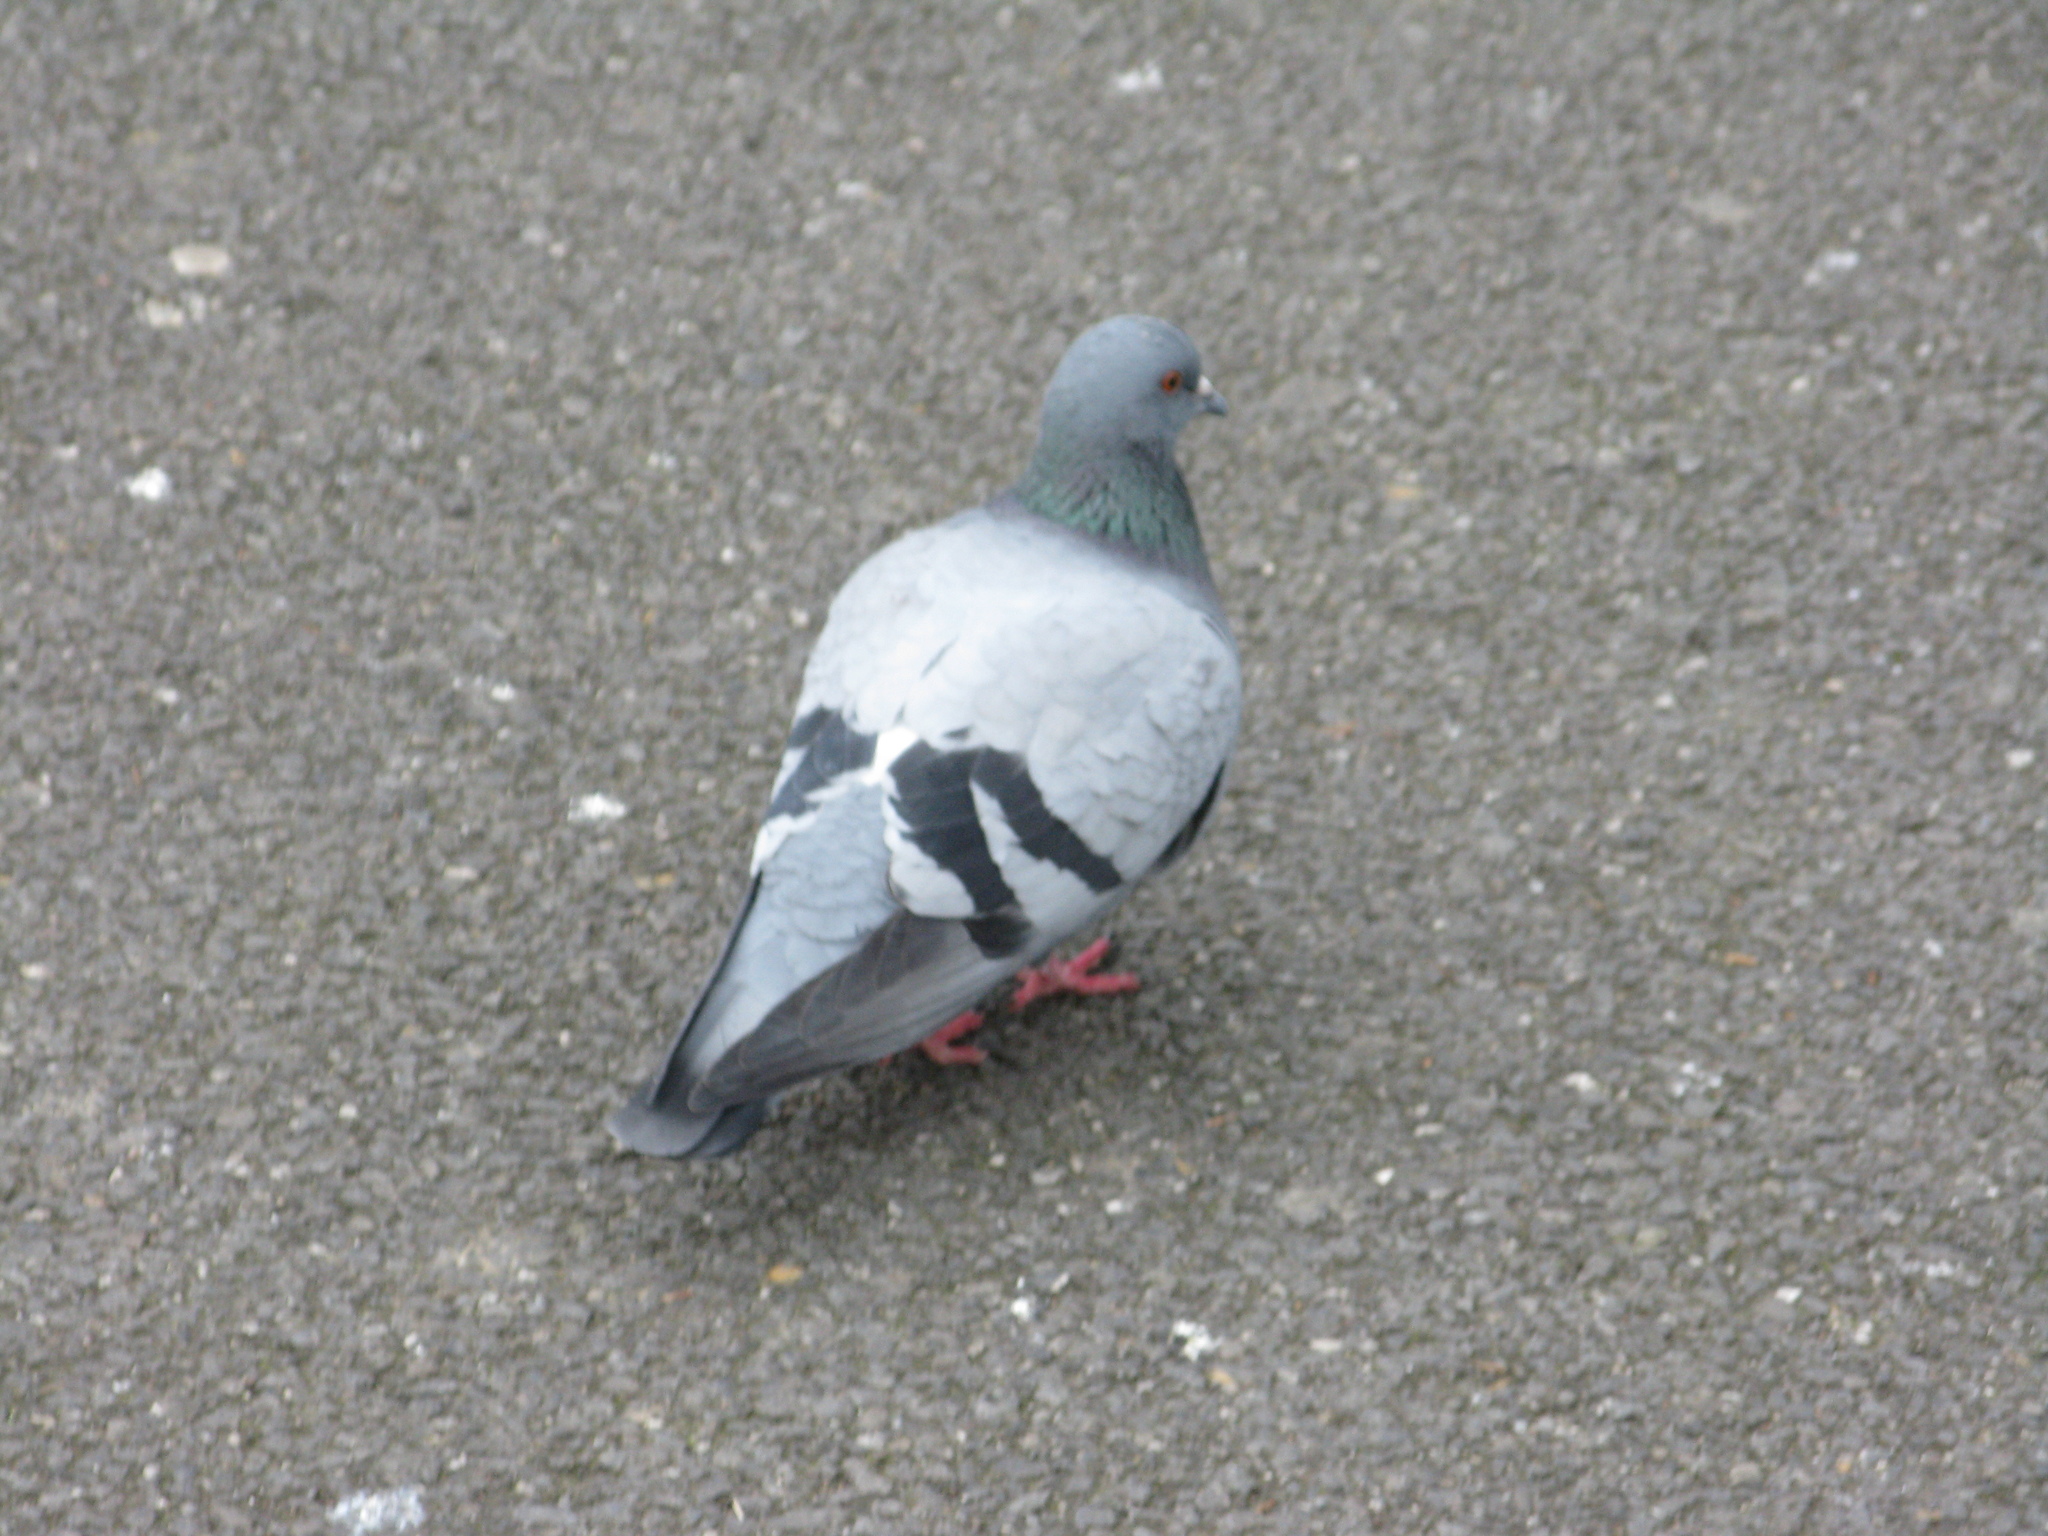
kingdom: Animalia
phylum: Chordata
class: Aves
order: Columbiformes
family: Columbidae
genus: Columba
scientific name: Columba livia
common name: Rock pigeon
